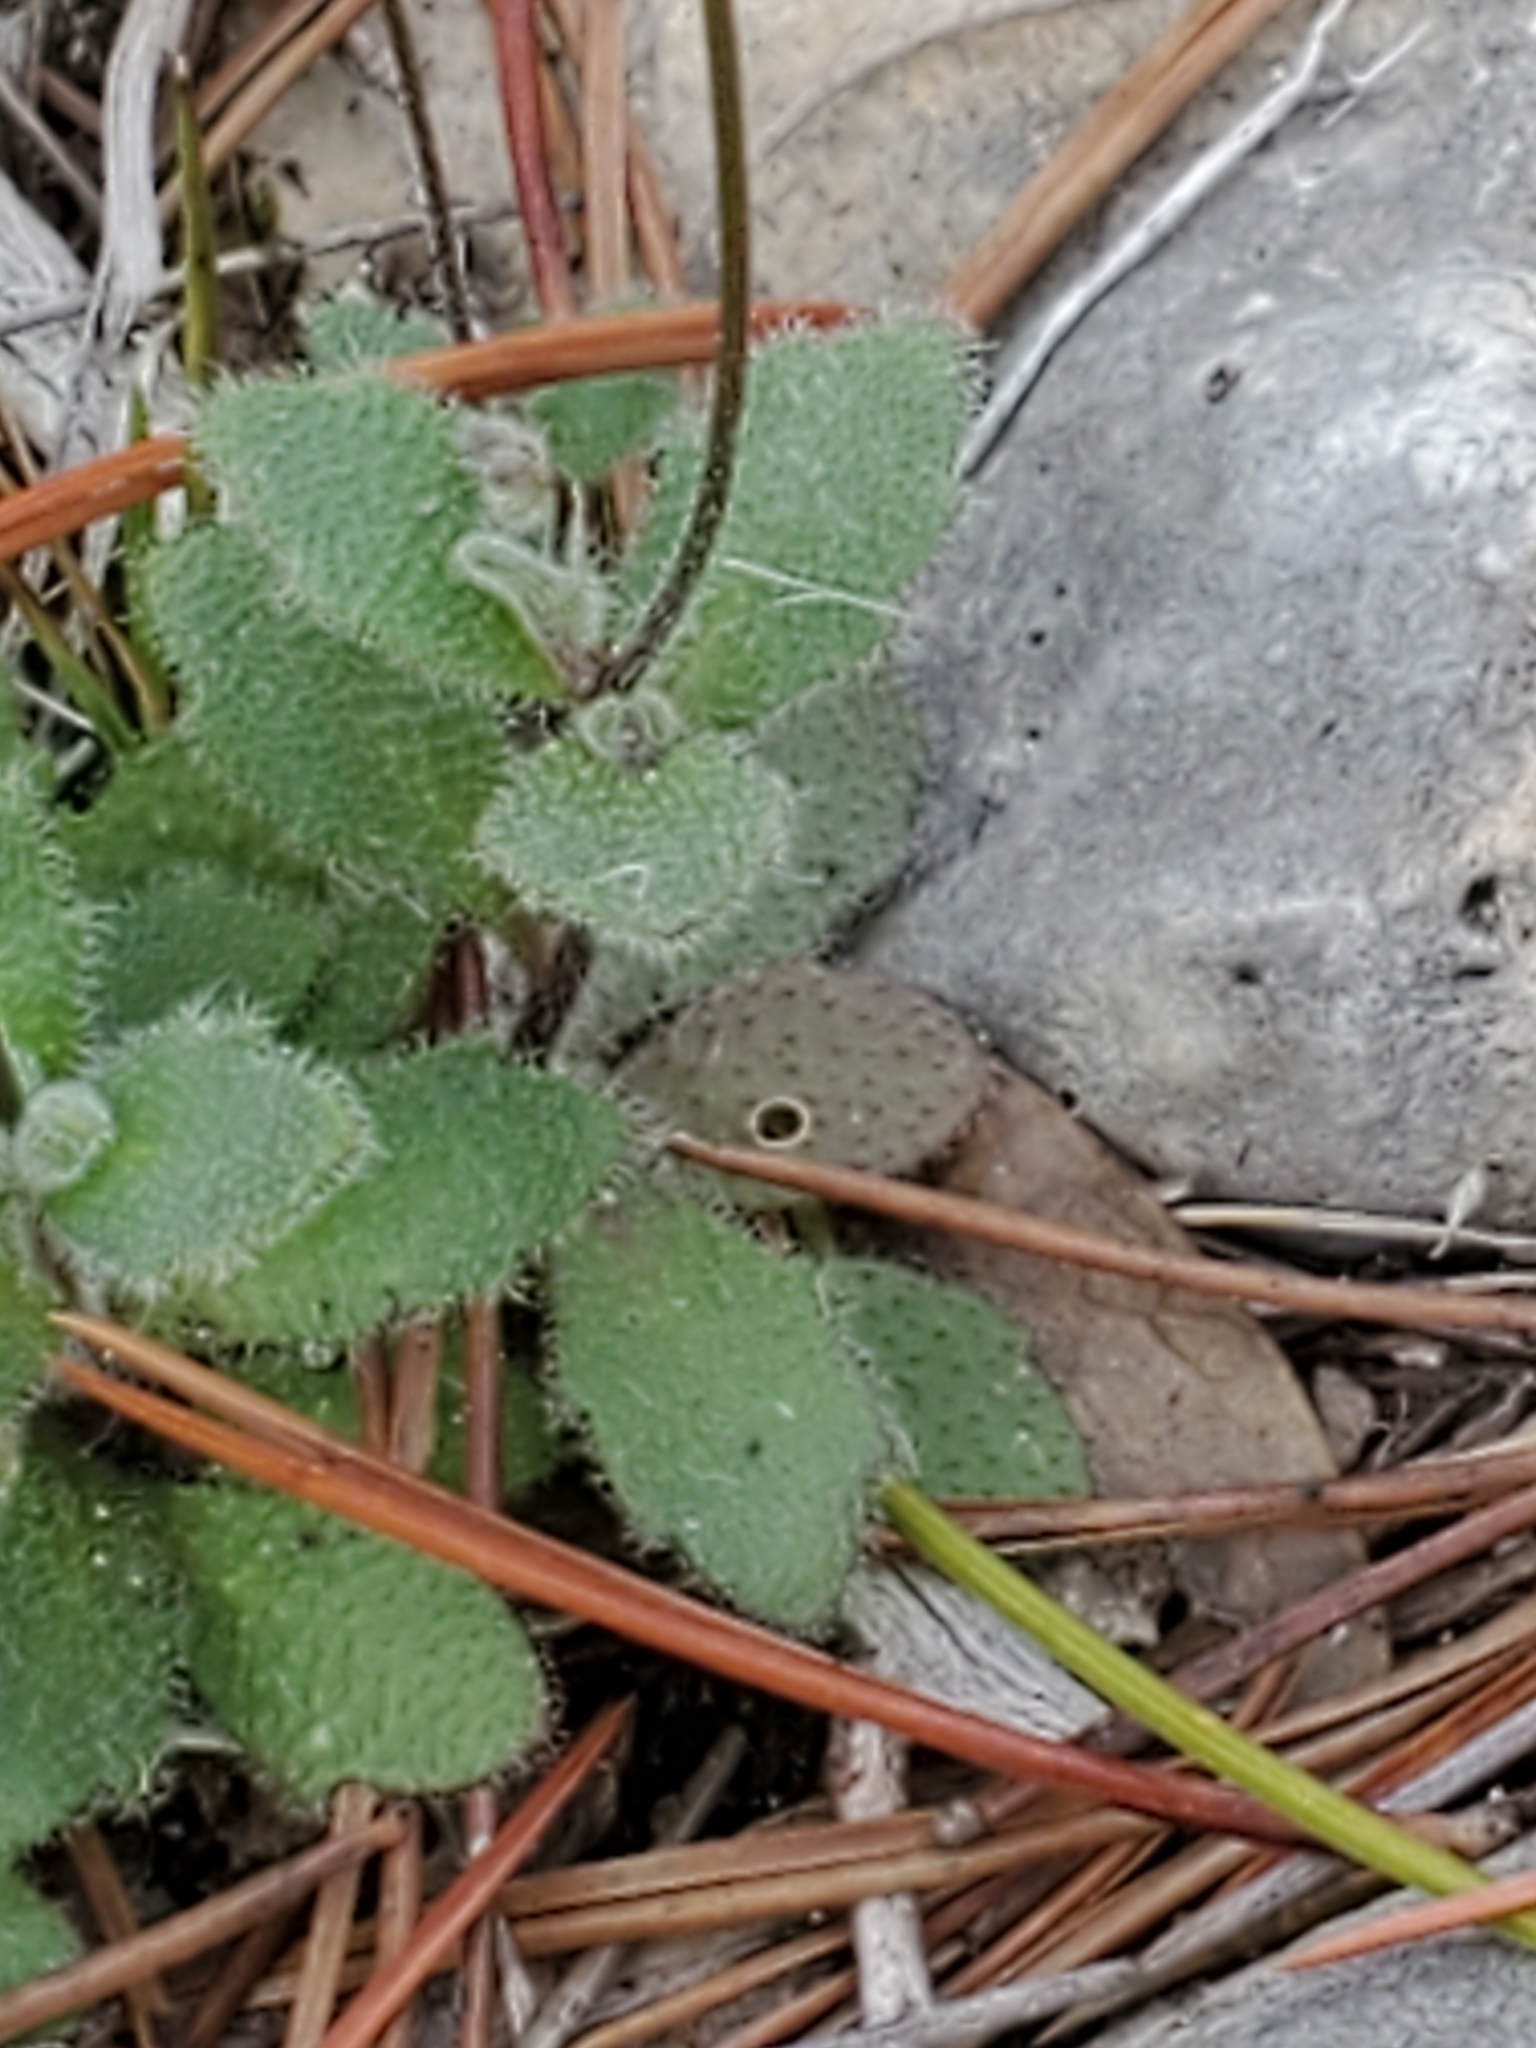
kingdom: Plantae
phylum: Tracheophyta
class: Magnoliopsida
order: Brassicales
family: Brassicaceae
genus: Tomostima
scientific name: Tomostima cuneifolia
